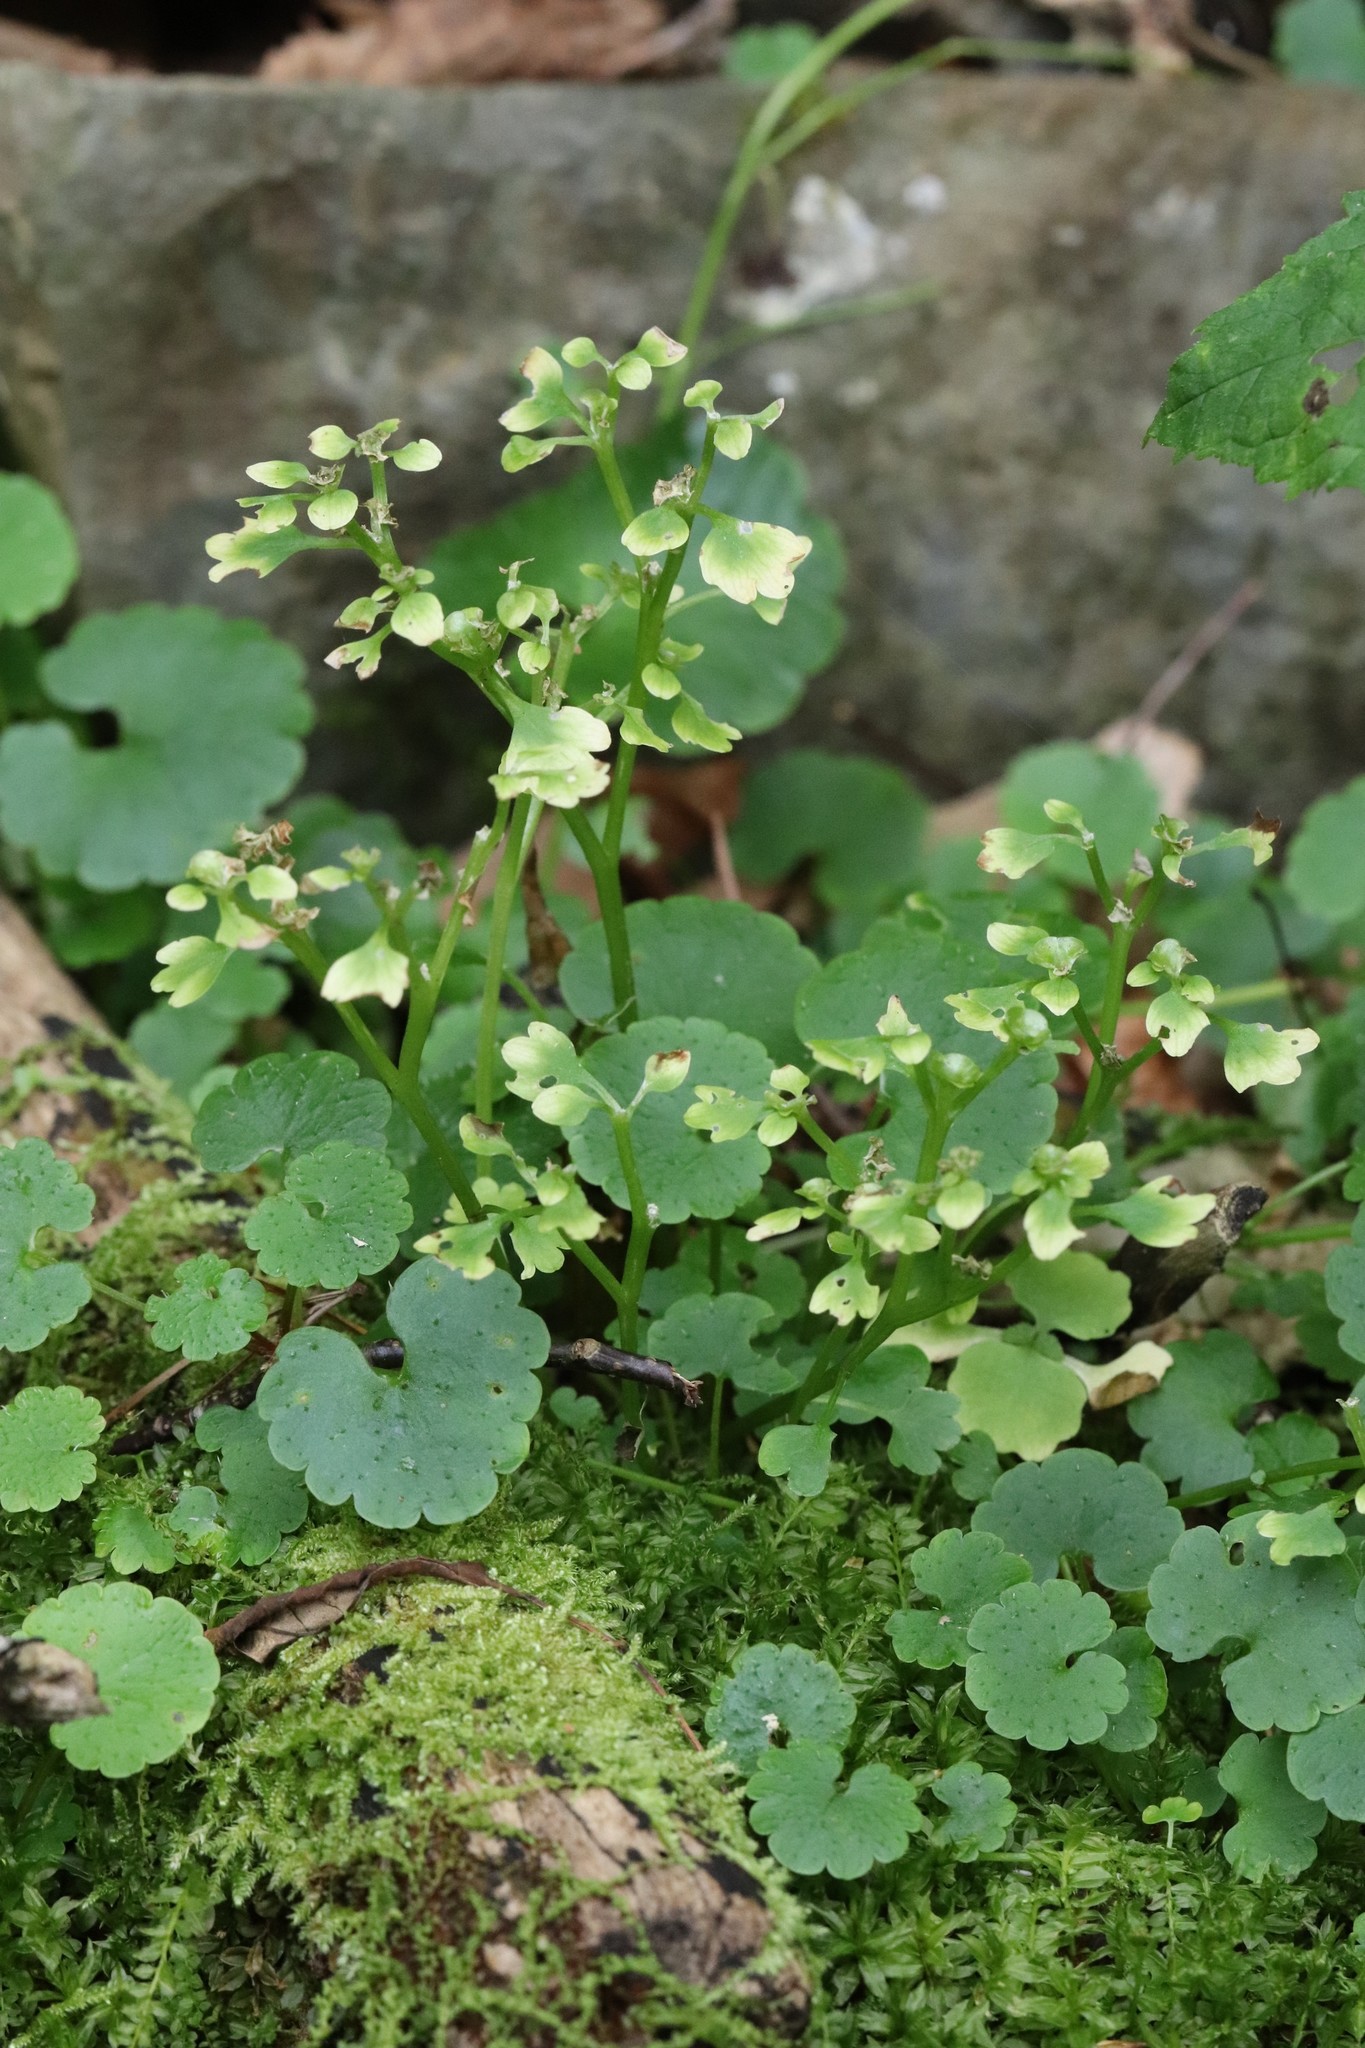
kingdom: Plantae
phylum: Tracheophyta
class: Magnoliopsida
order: Saxifragales
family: Saxifragaceae
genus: Chrysosplenium
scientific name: Chrysosplenium flagelliferum
